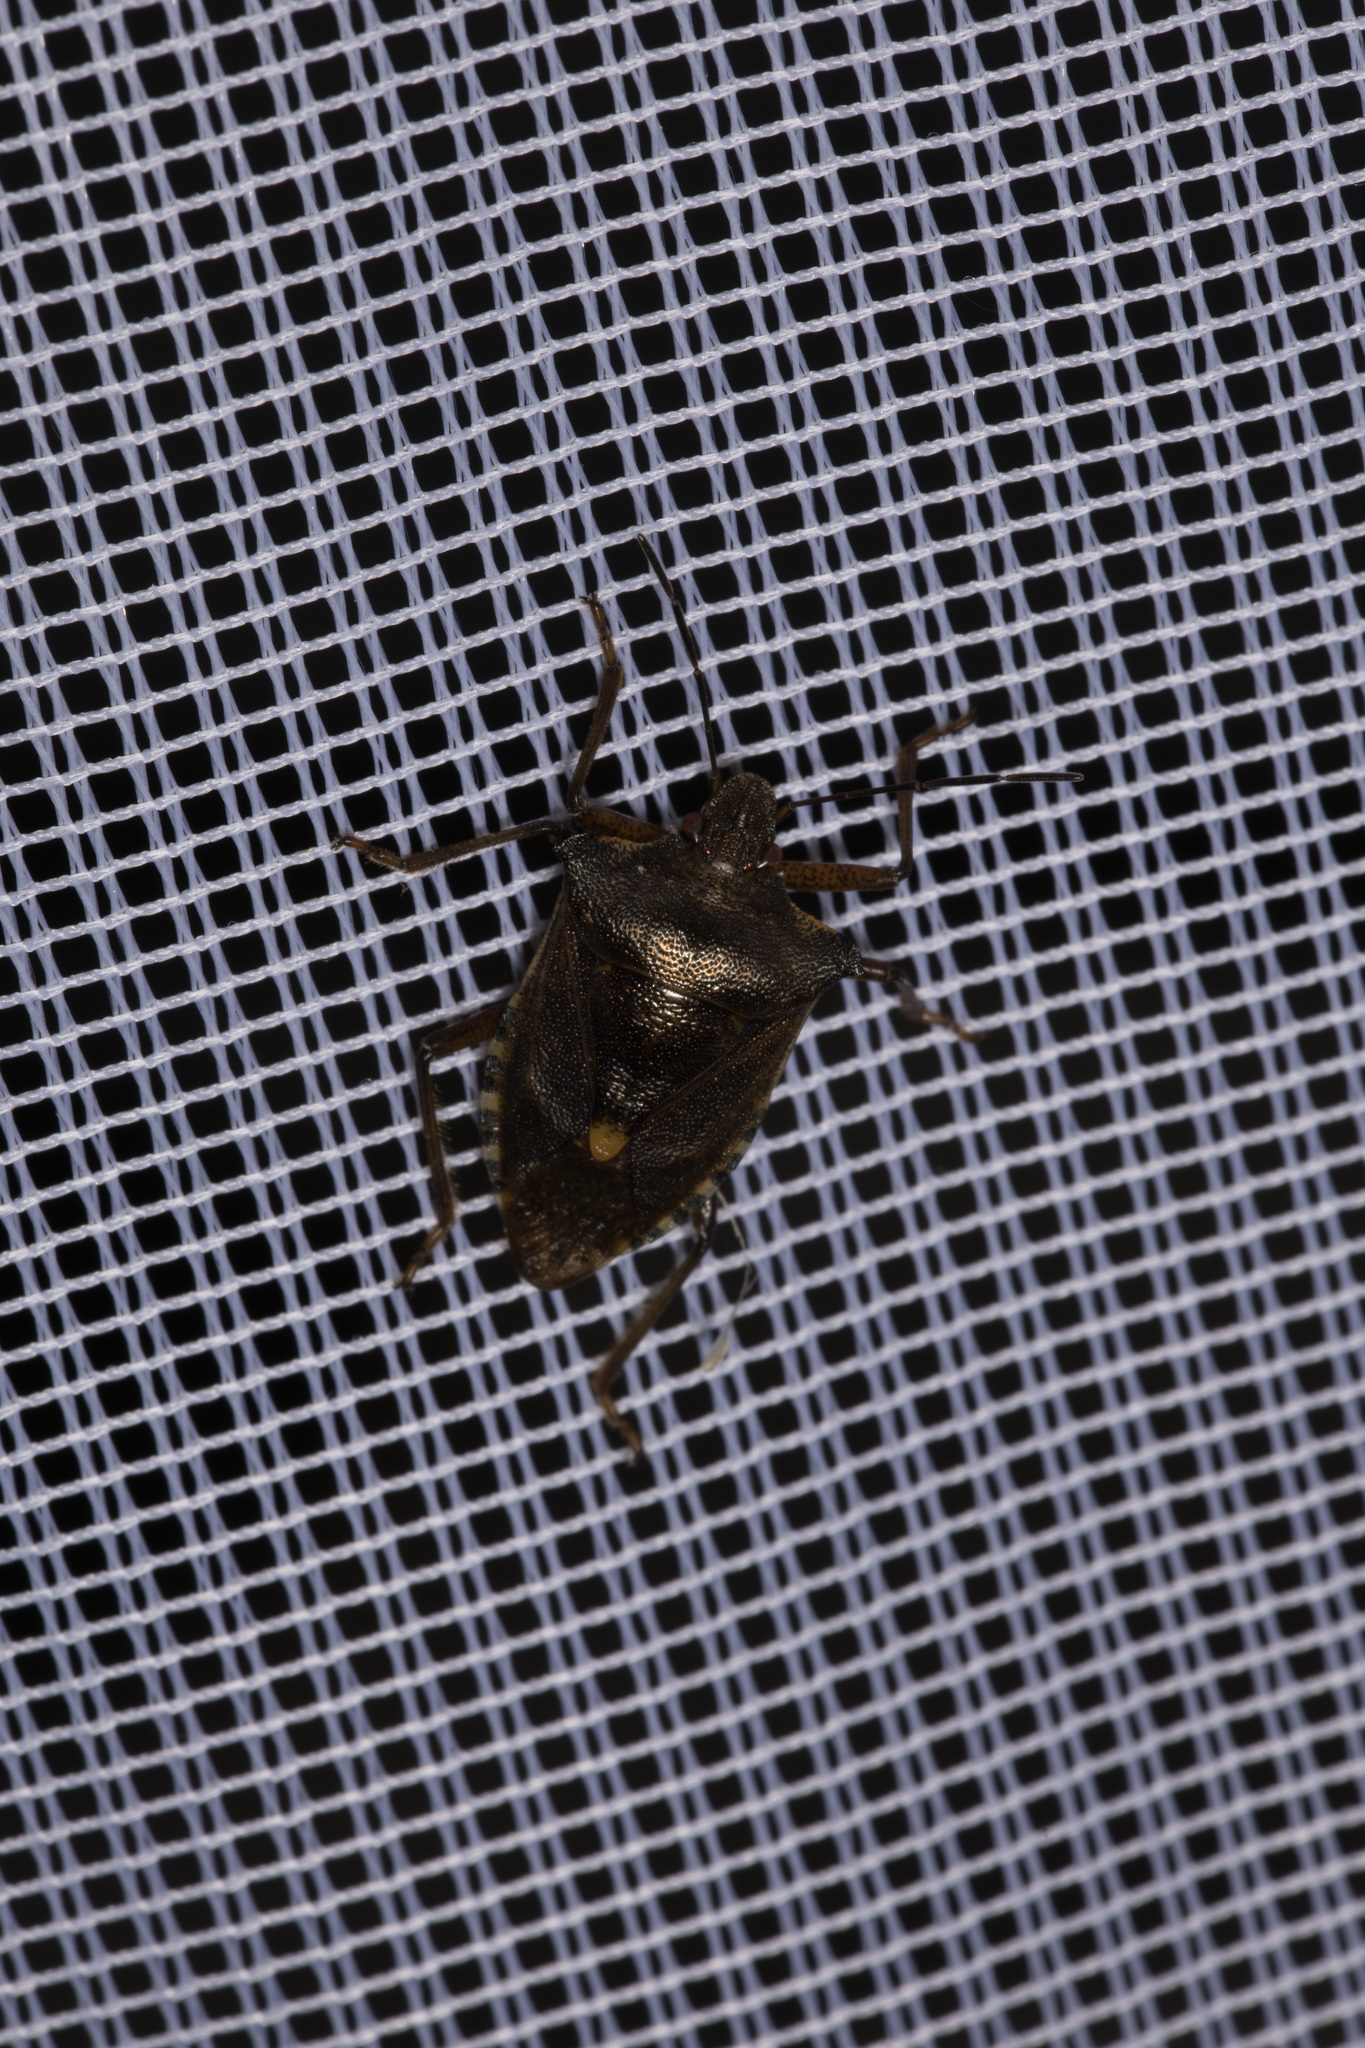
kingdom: Animalia
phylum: Arthropoda
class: Insecta
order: Hemiptera
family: Pentatomidae
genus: Pentatoma
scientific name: Pentatoma rufipes
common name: Forest bug
